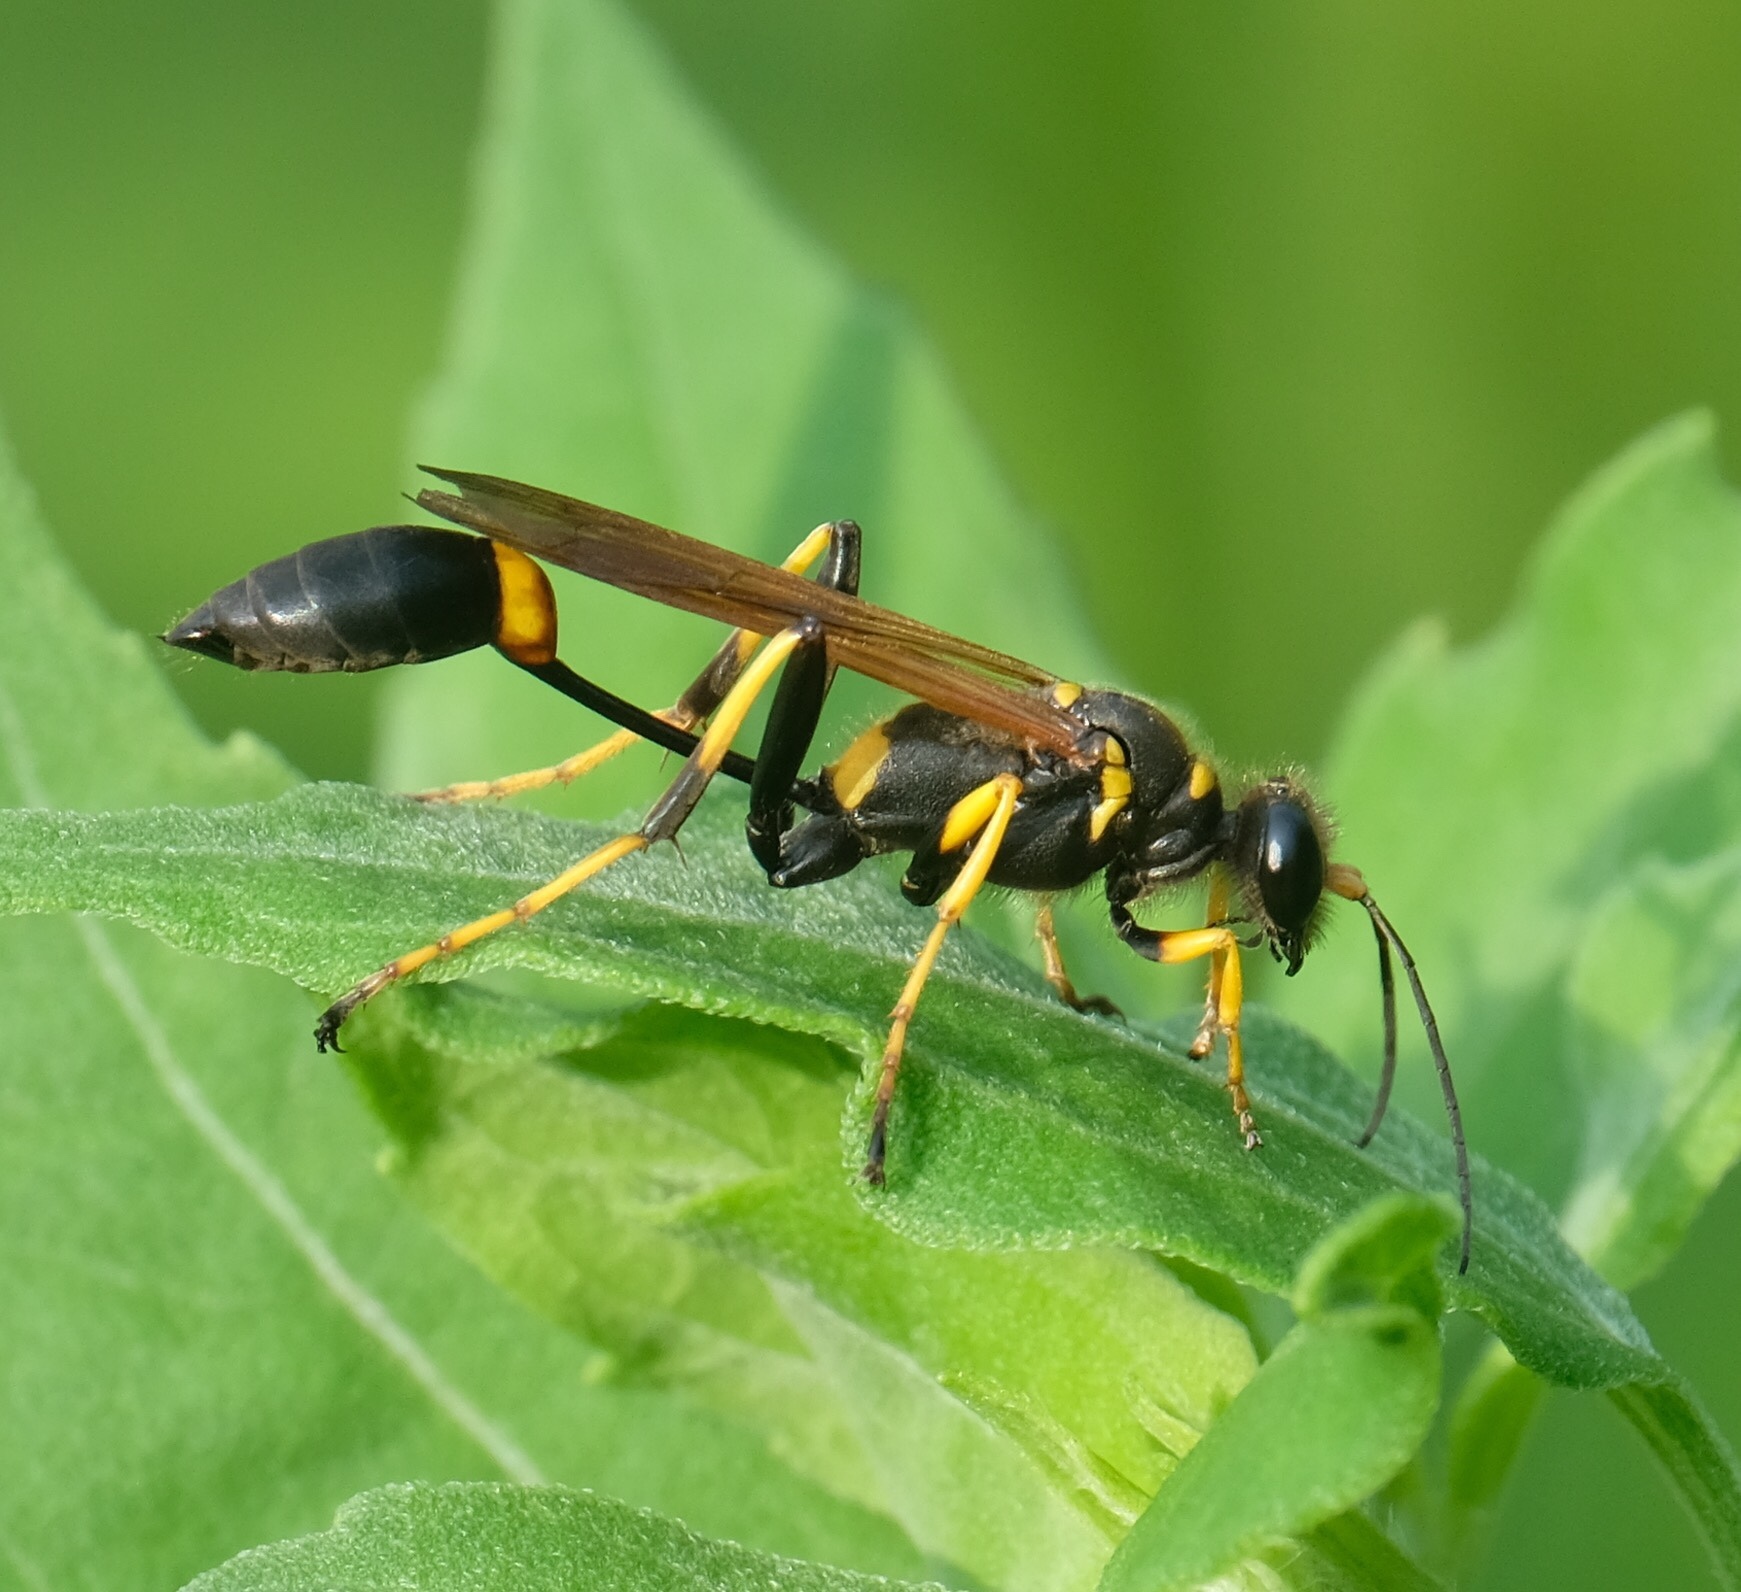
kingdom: Animalia
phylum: Arthropoda
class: Insecta
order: Hymenoptera
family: Sphecidae
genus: Sceliphron
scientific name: Sceliphron caementarium
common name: Mud dauber
